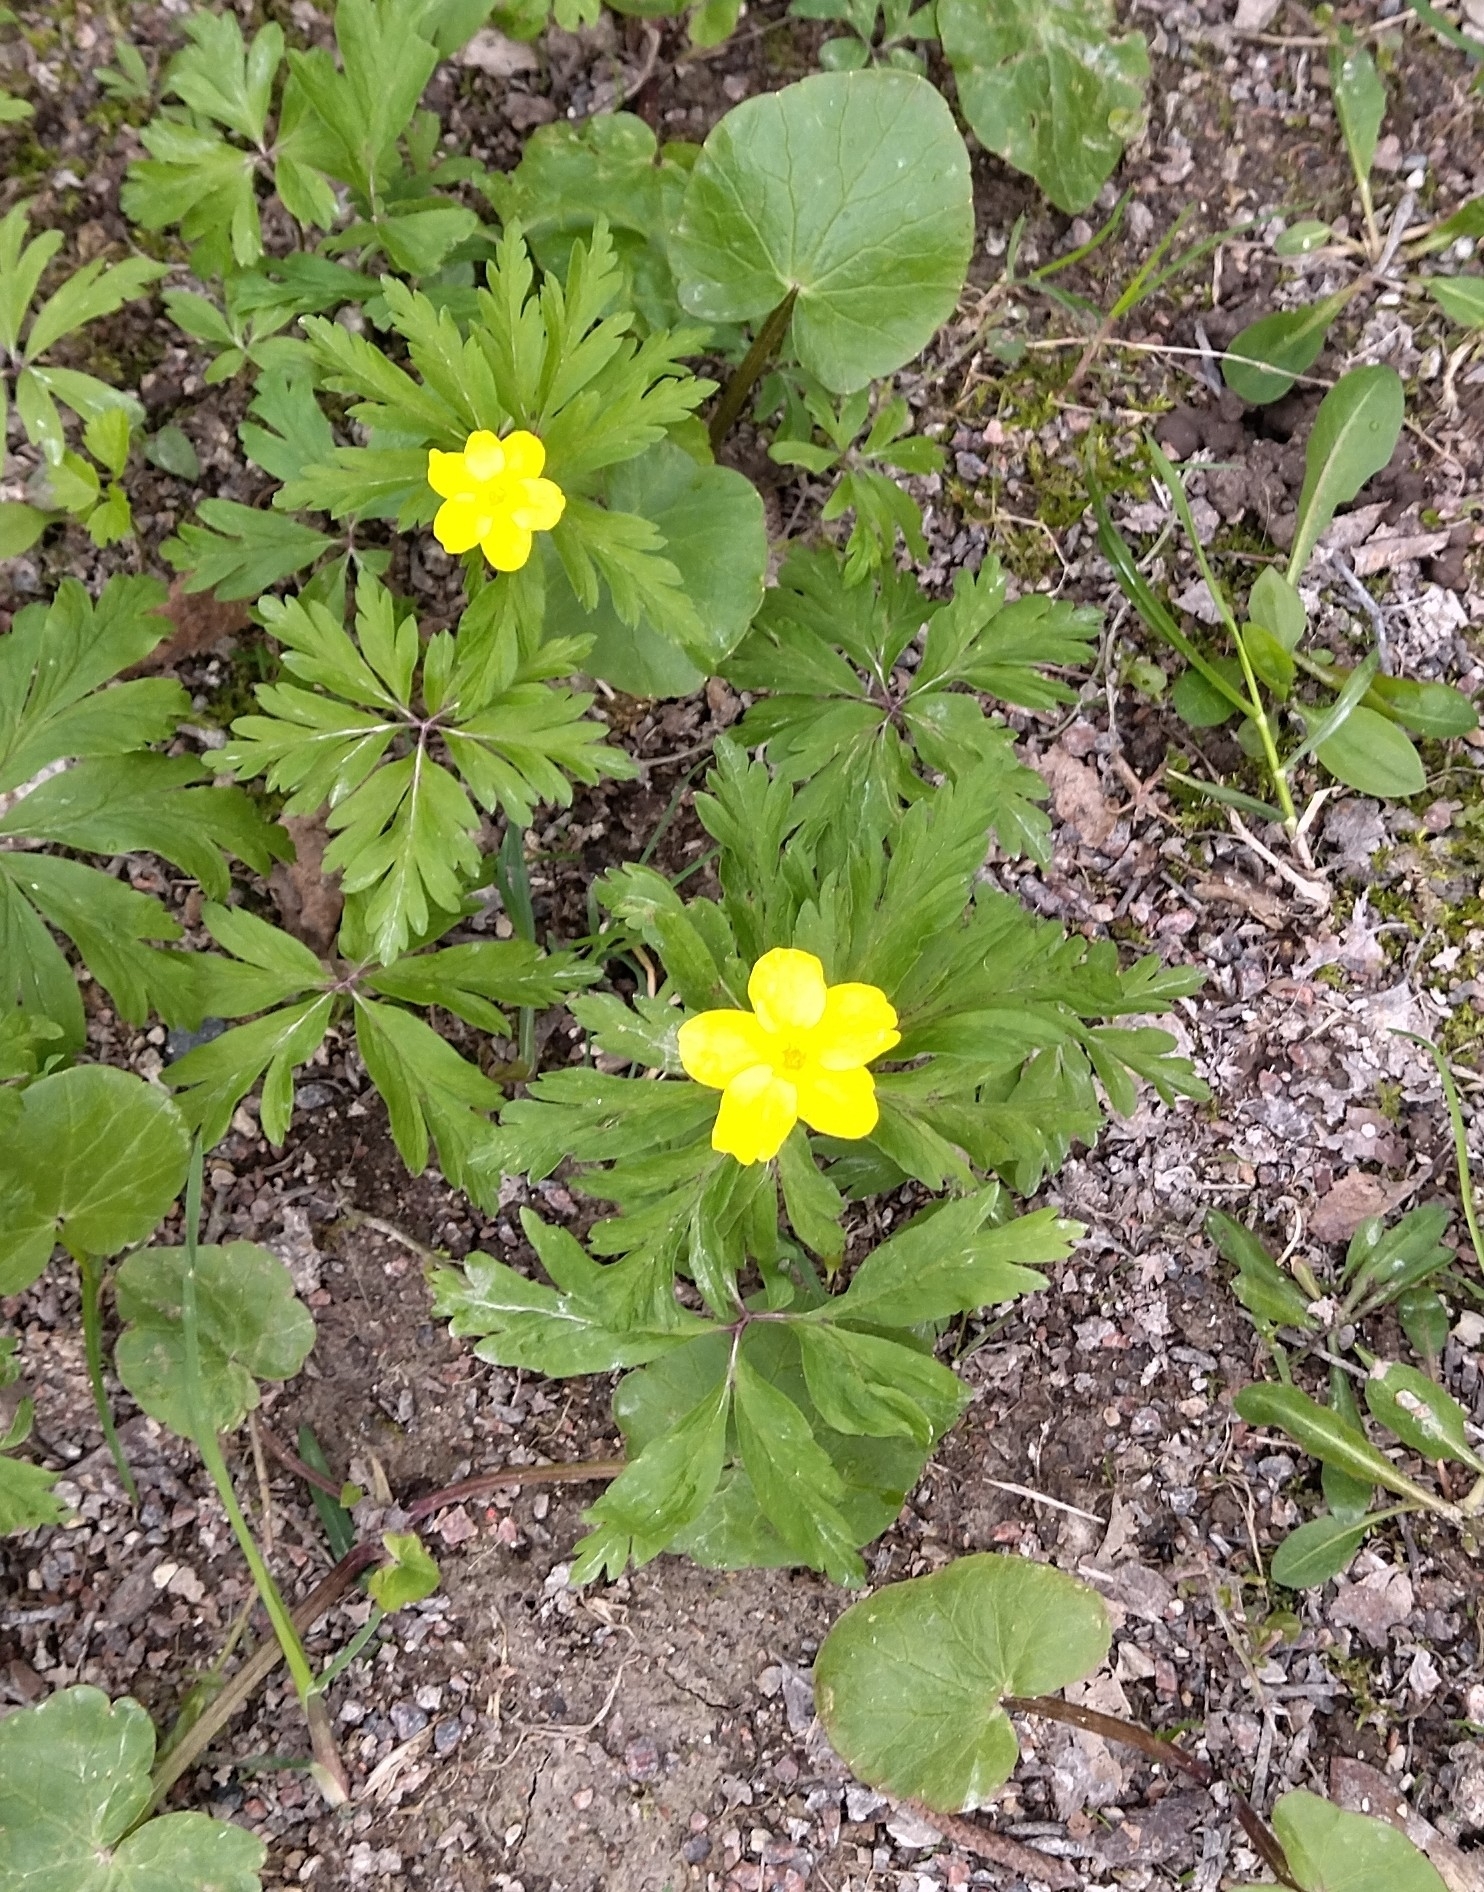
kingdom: Plantae
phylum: Tracheophyta
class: Magnoliopsida
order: Ranunculales
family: Ranunculaceae
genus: Anemone
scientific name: Anemone ranunculoides
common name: Yellow anemone
